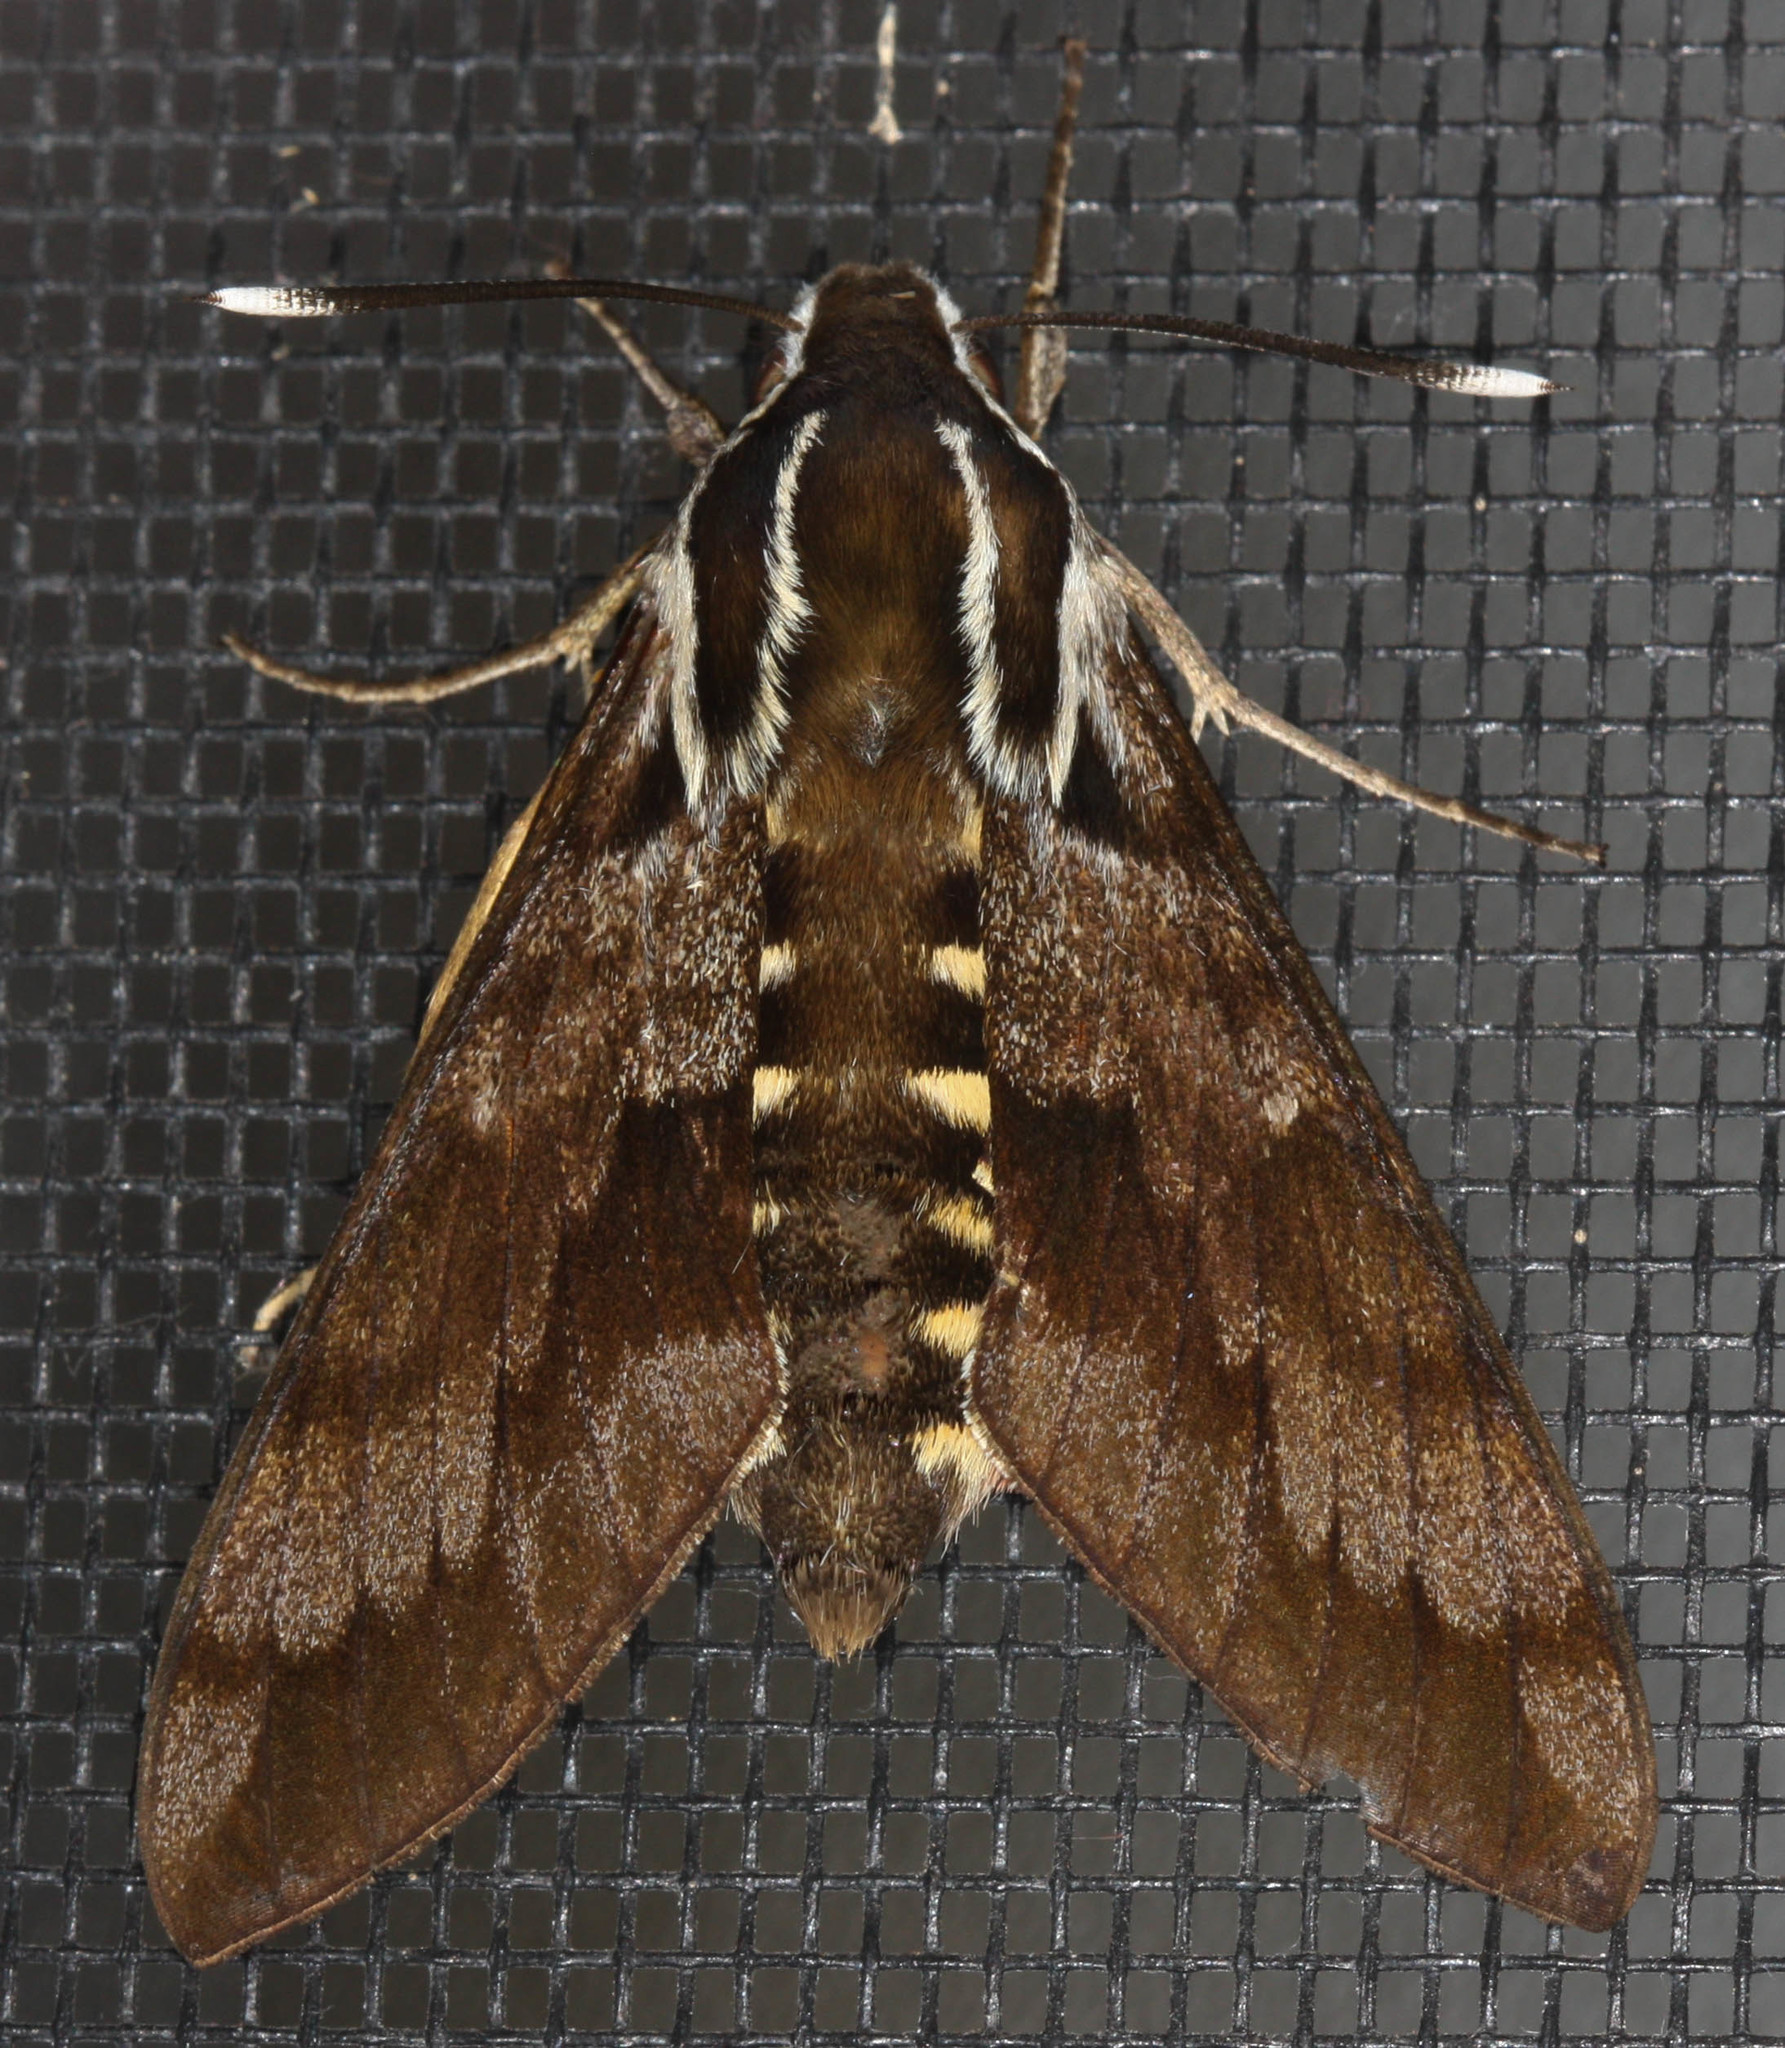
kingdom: Animalia
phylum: Arthropoda
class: Insecta
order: Lepidoptera
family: Sphingidae
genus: Hyles
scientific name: Hyles wilsoni
